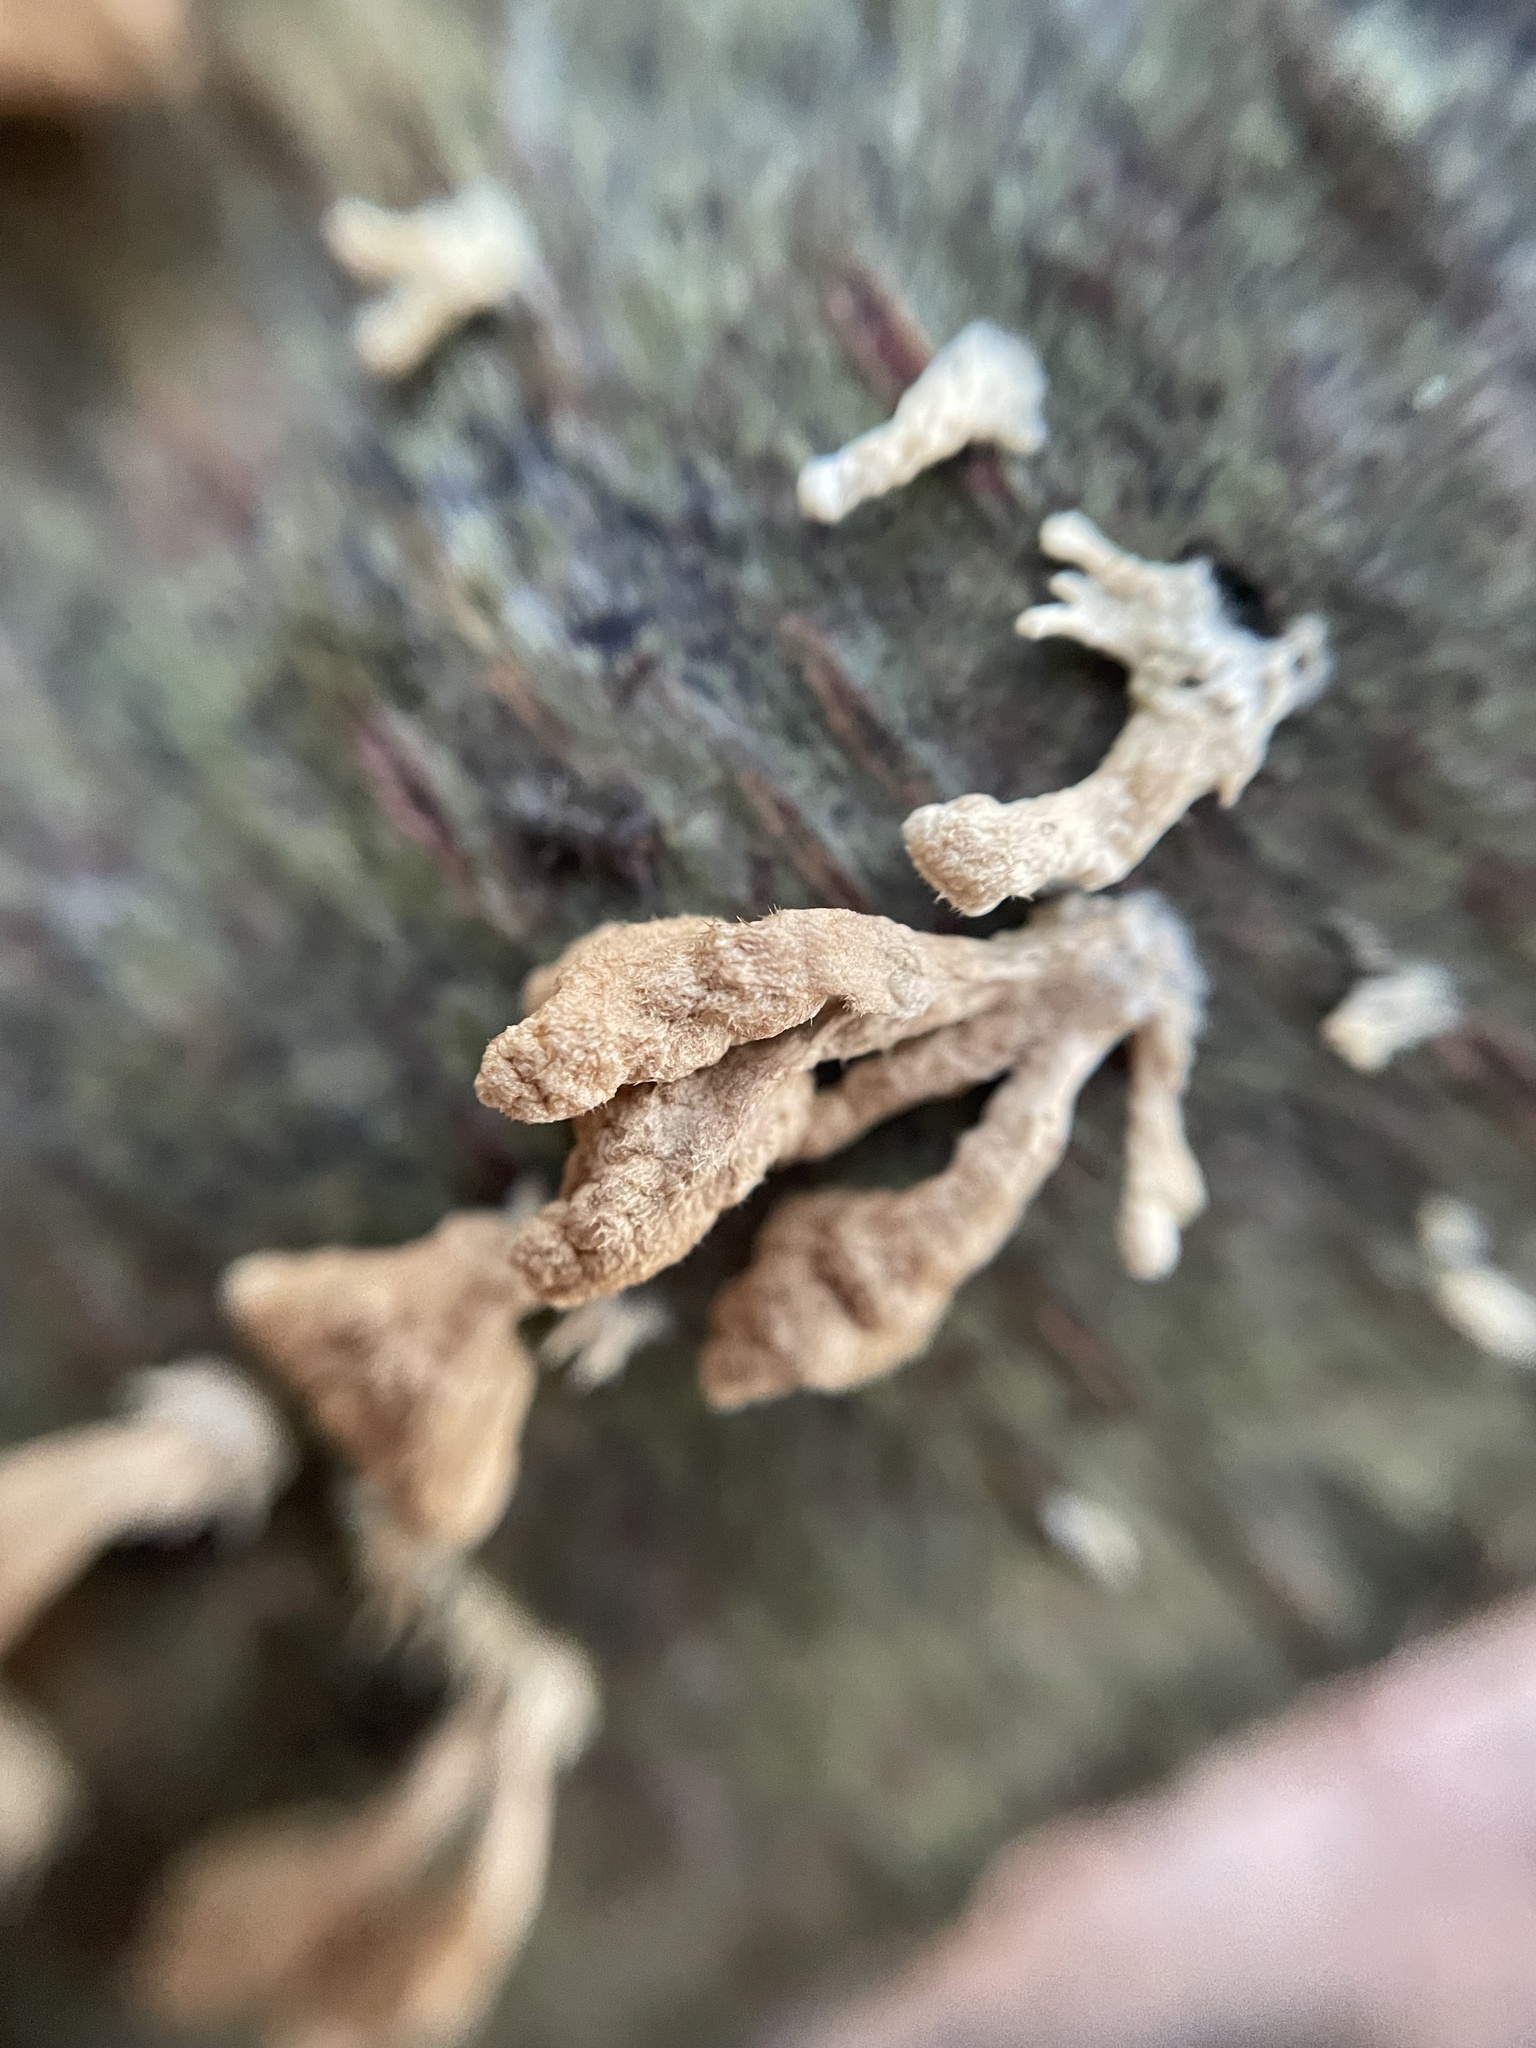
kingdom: Fungi
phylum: Basidiomycota
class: Agaricomycetes
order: Amylocorticiales
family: Amylocorticiaceae
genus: Plicaturopsis
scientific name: Plicaturopsis crispa
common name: Crimped gill
